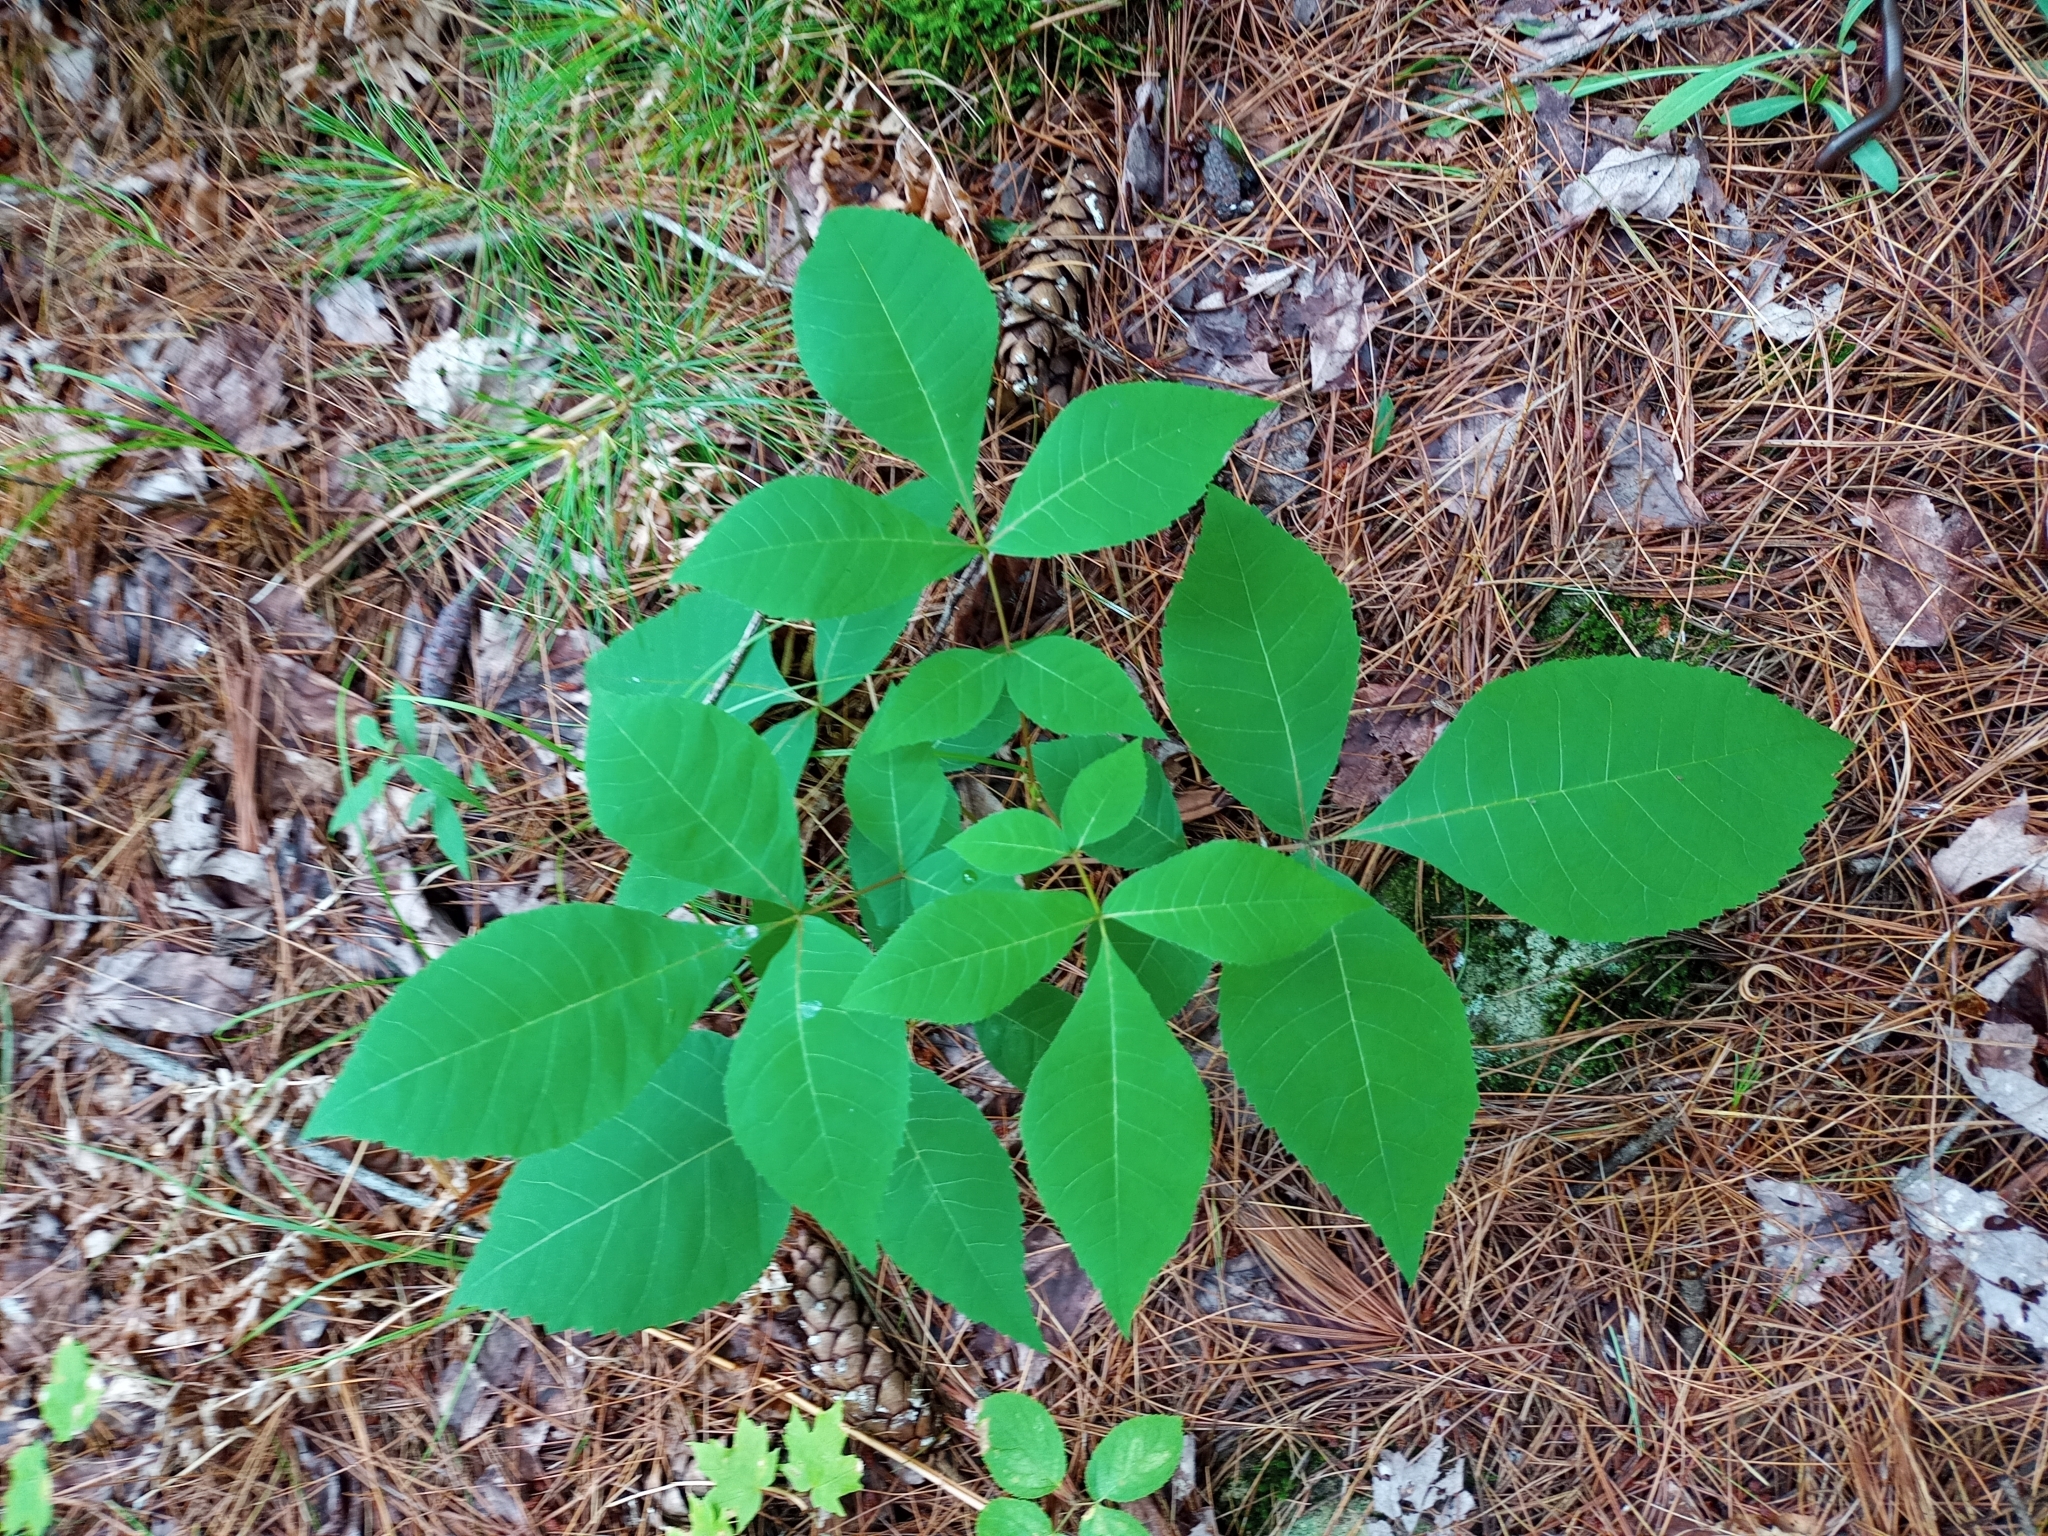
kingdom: Plantae
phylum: Tracheophyta
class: Magnoliopsida
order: Fagales
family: Juglandaceae
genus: Carya
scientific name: Carya ovata
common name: Shagbark hickory
